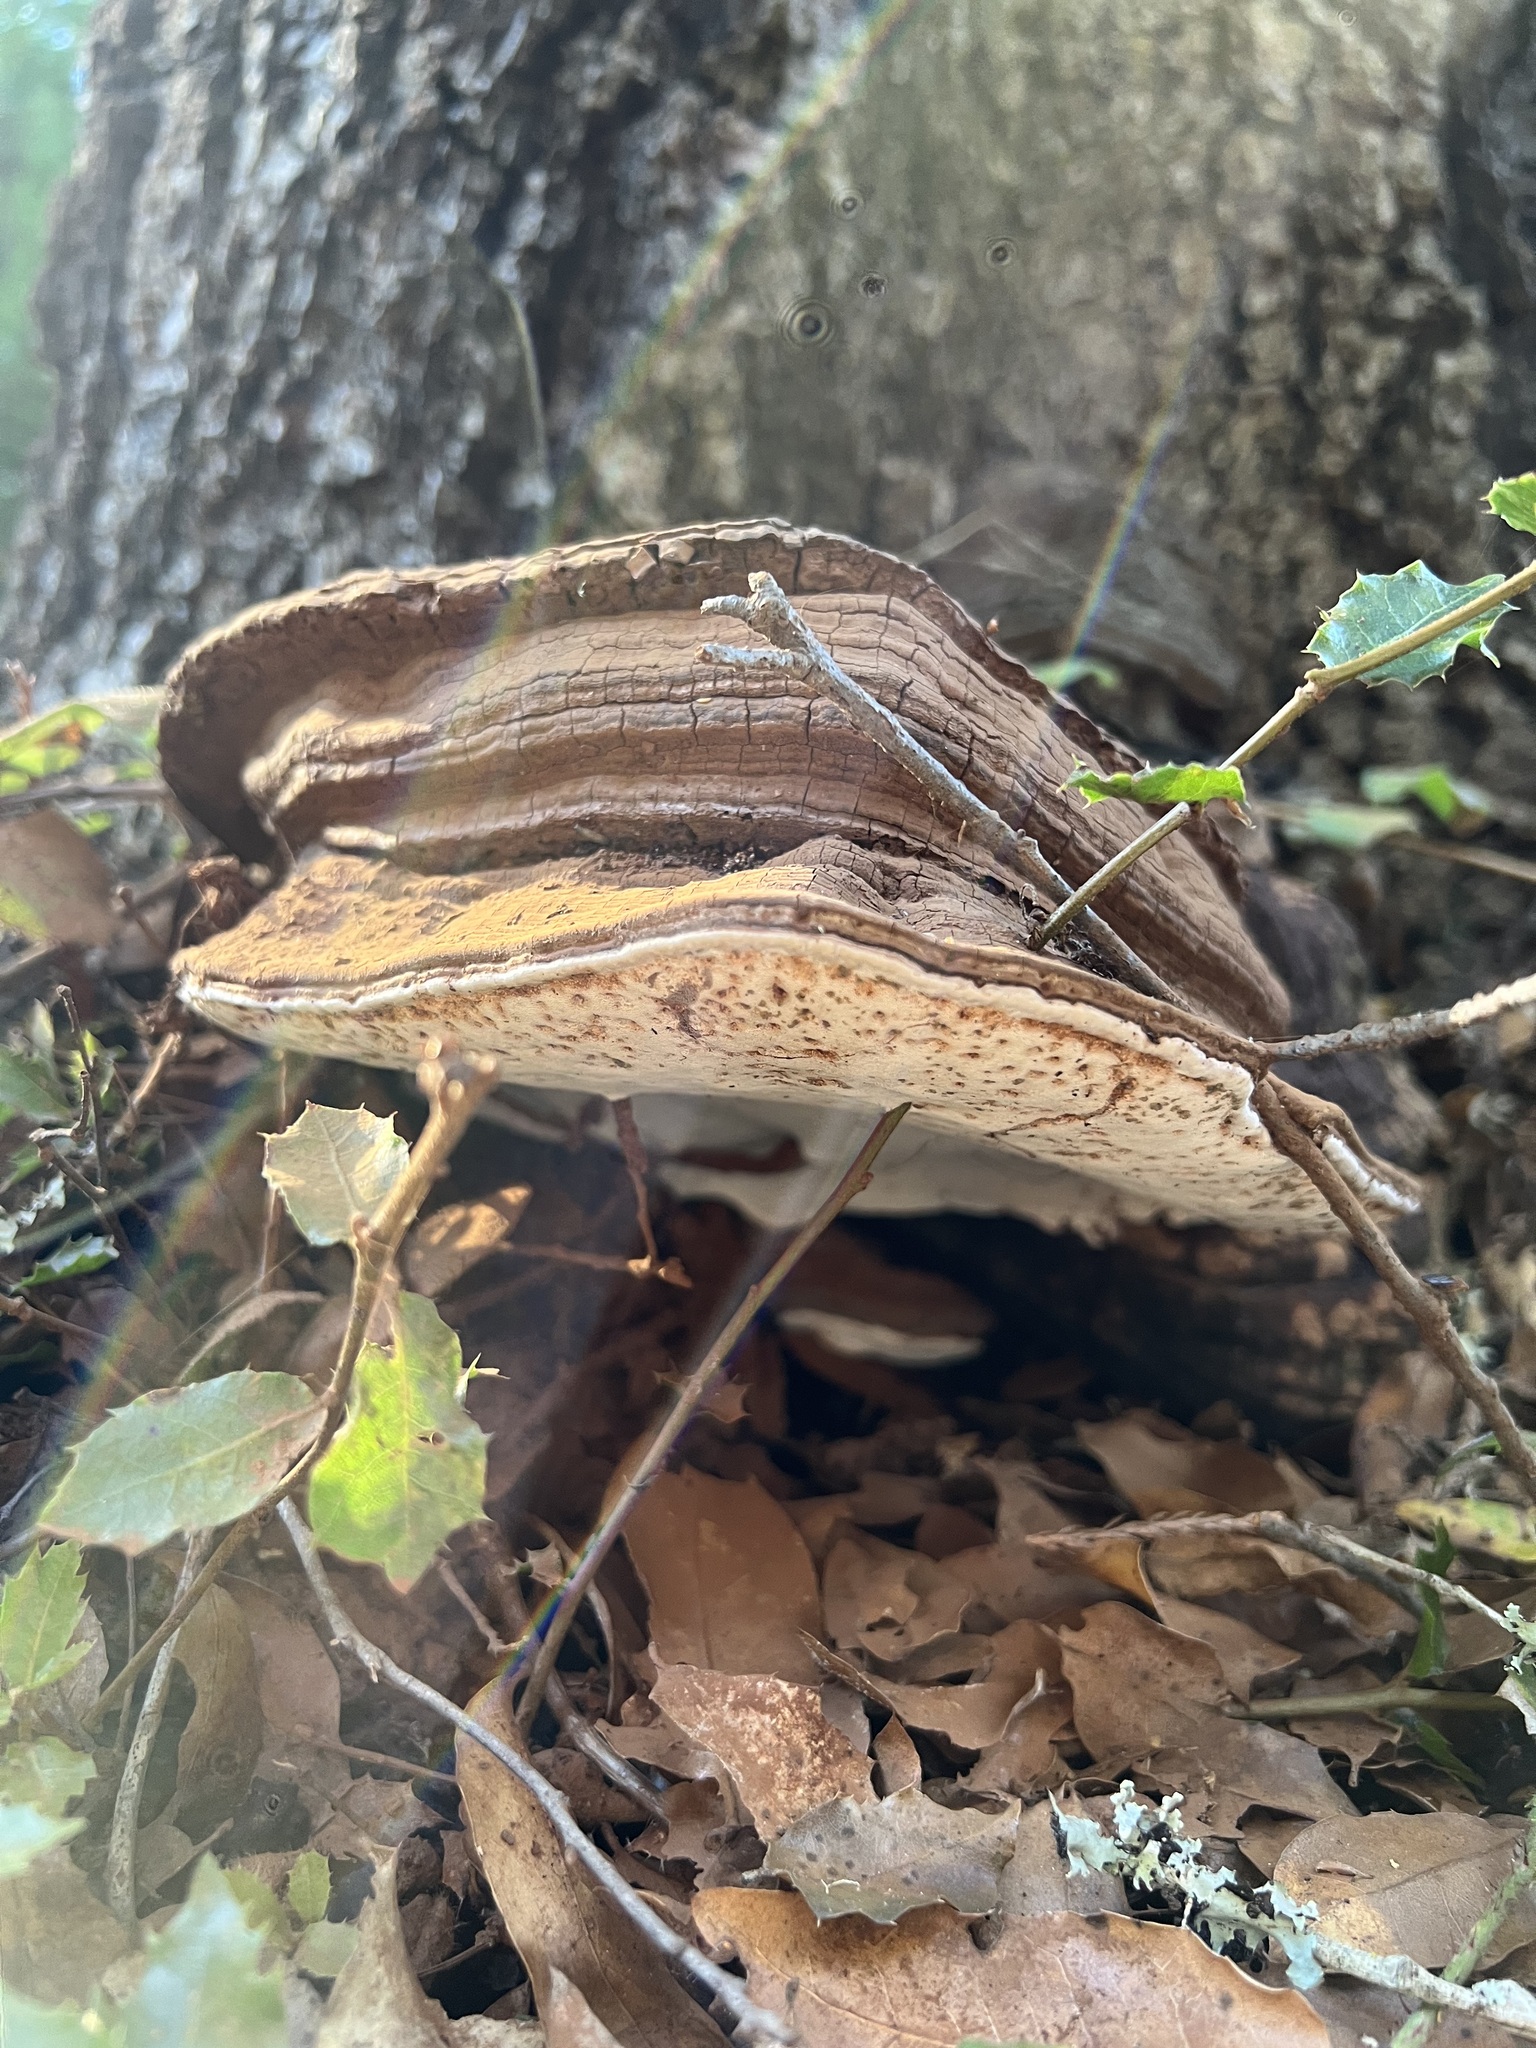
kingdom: Fungi
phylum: Basidiomycota
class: Agaricomycetes
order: Polyporales
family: Polyporaceae
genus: Ganoderma
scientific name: Ganoderma brownii
